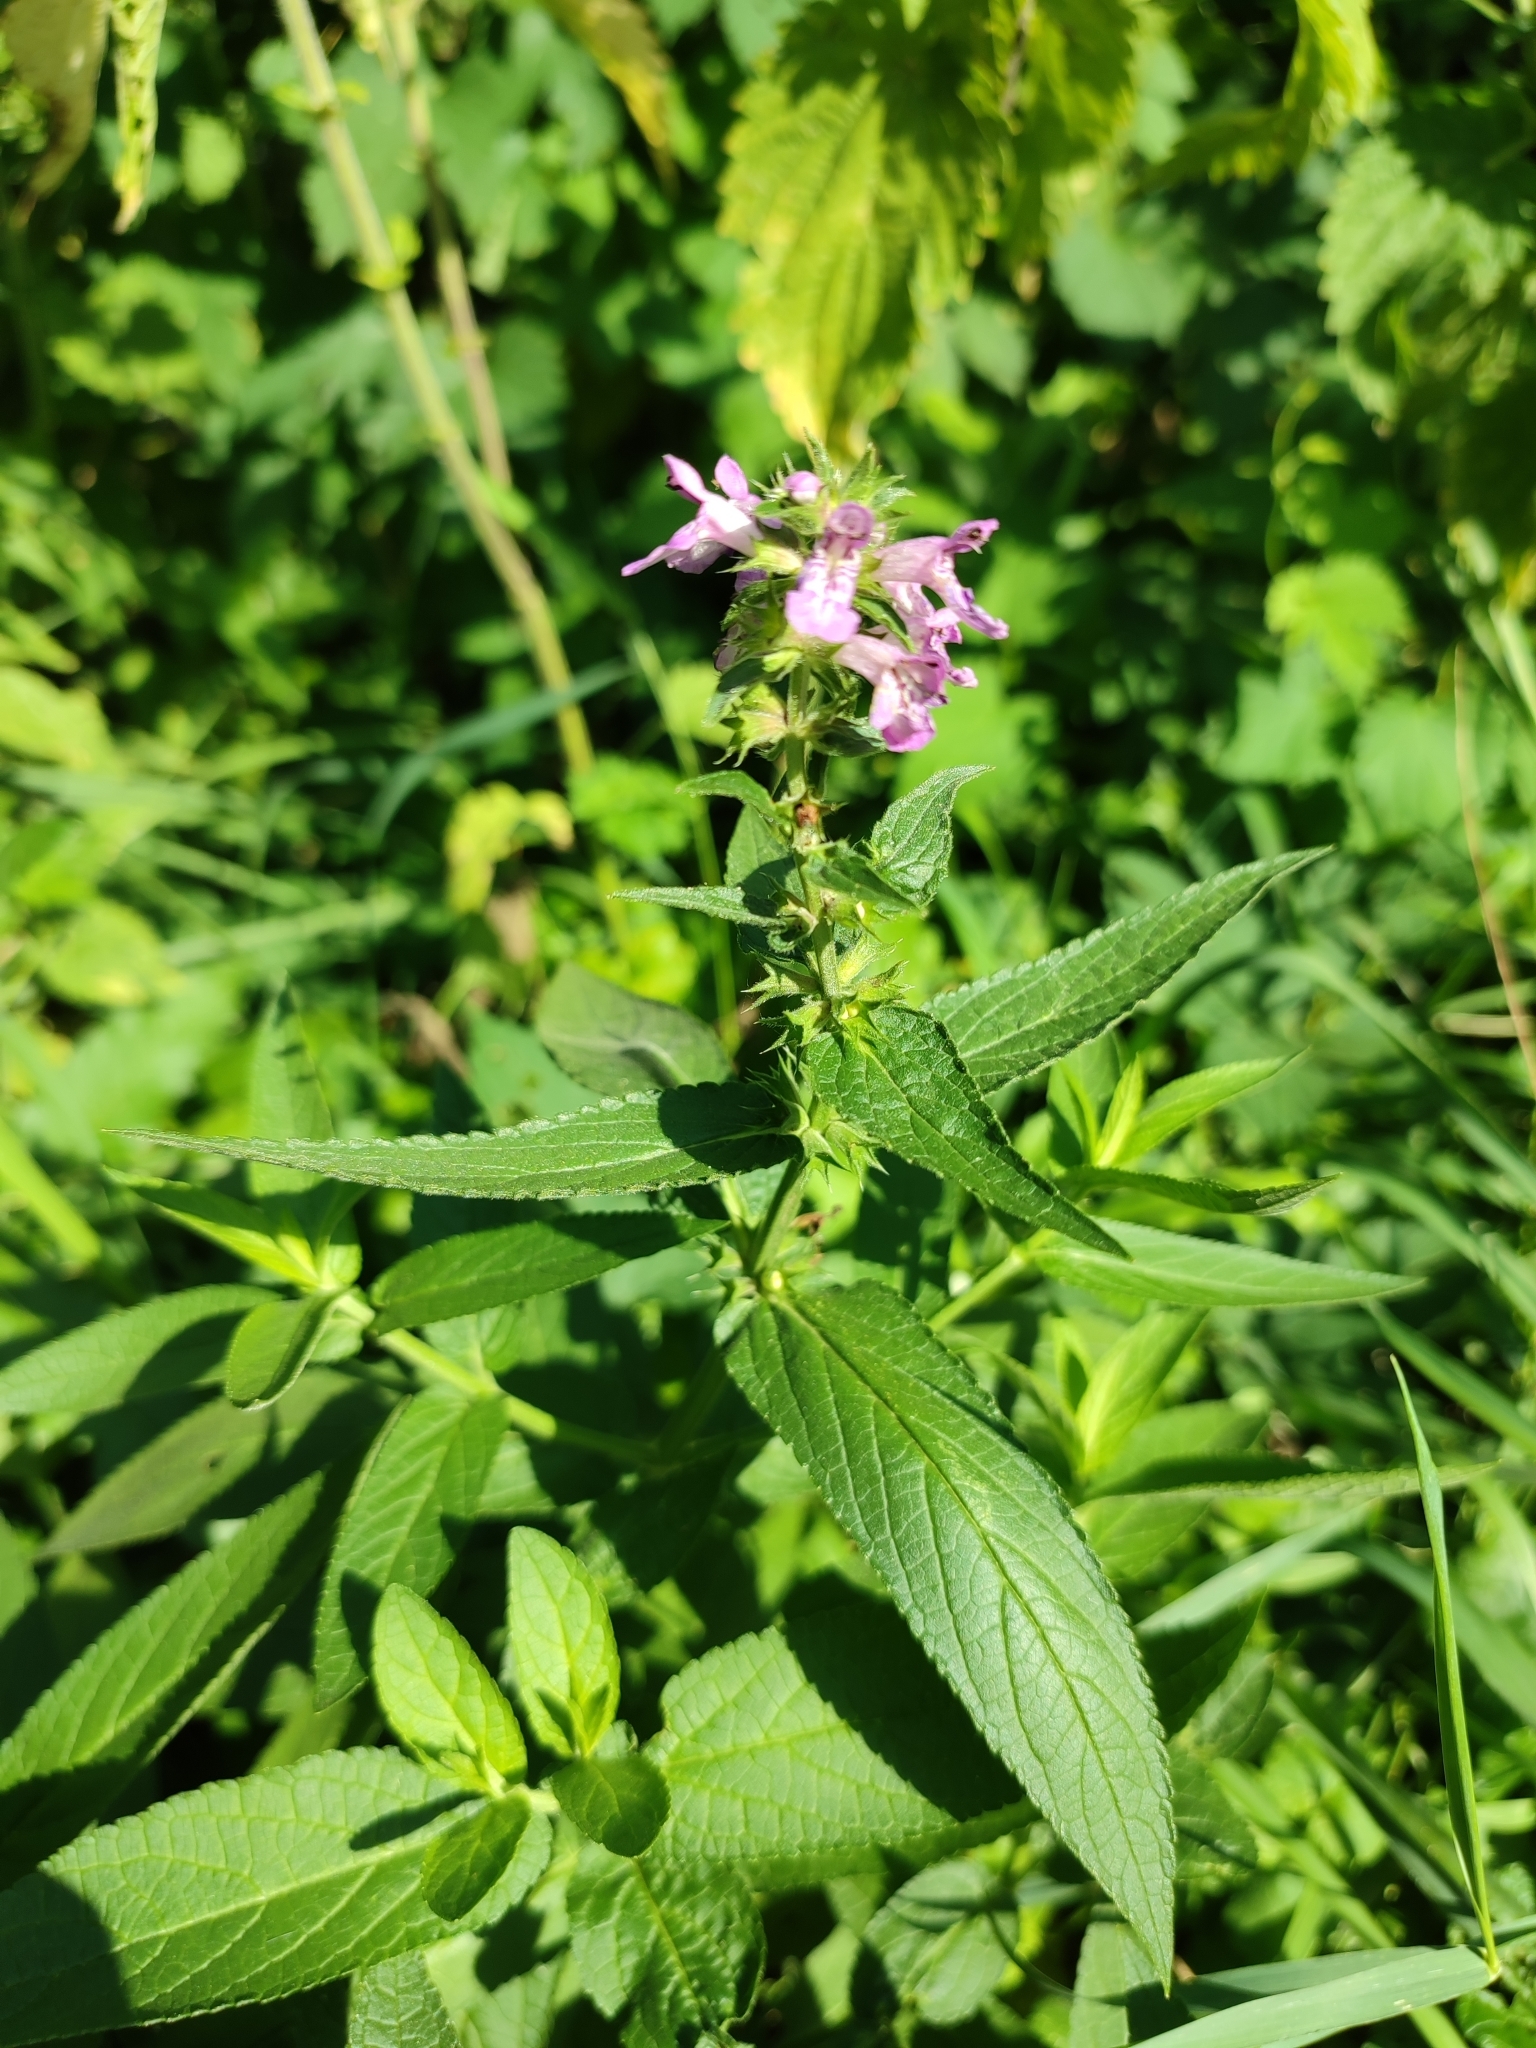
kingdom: Plantae
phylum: Tracheophyta
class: Magnoliopsida
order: Lamiales
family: Lamiaceae
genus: Stachys
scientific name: Stachys palustris
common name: Marsh woundwort
